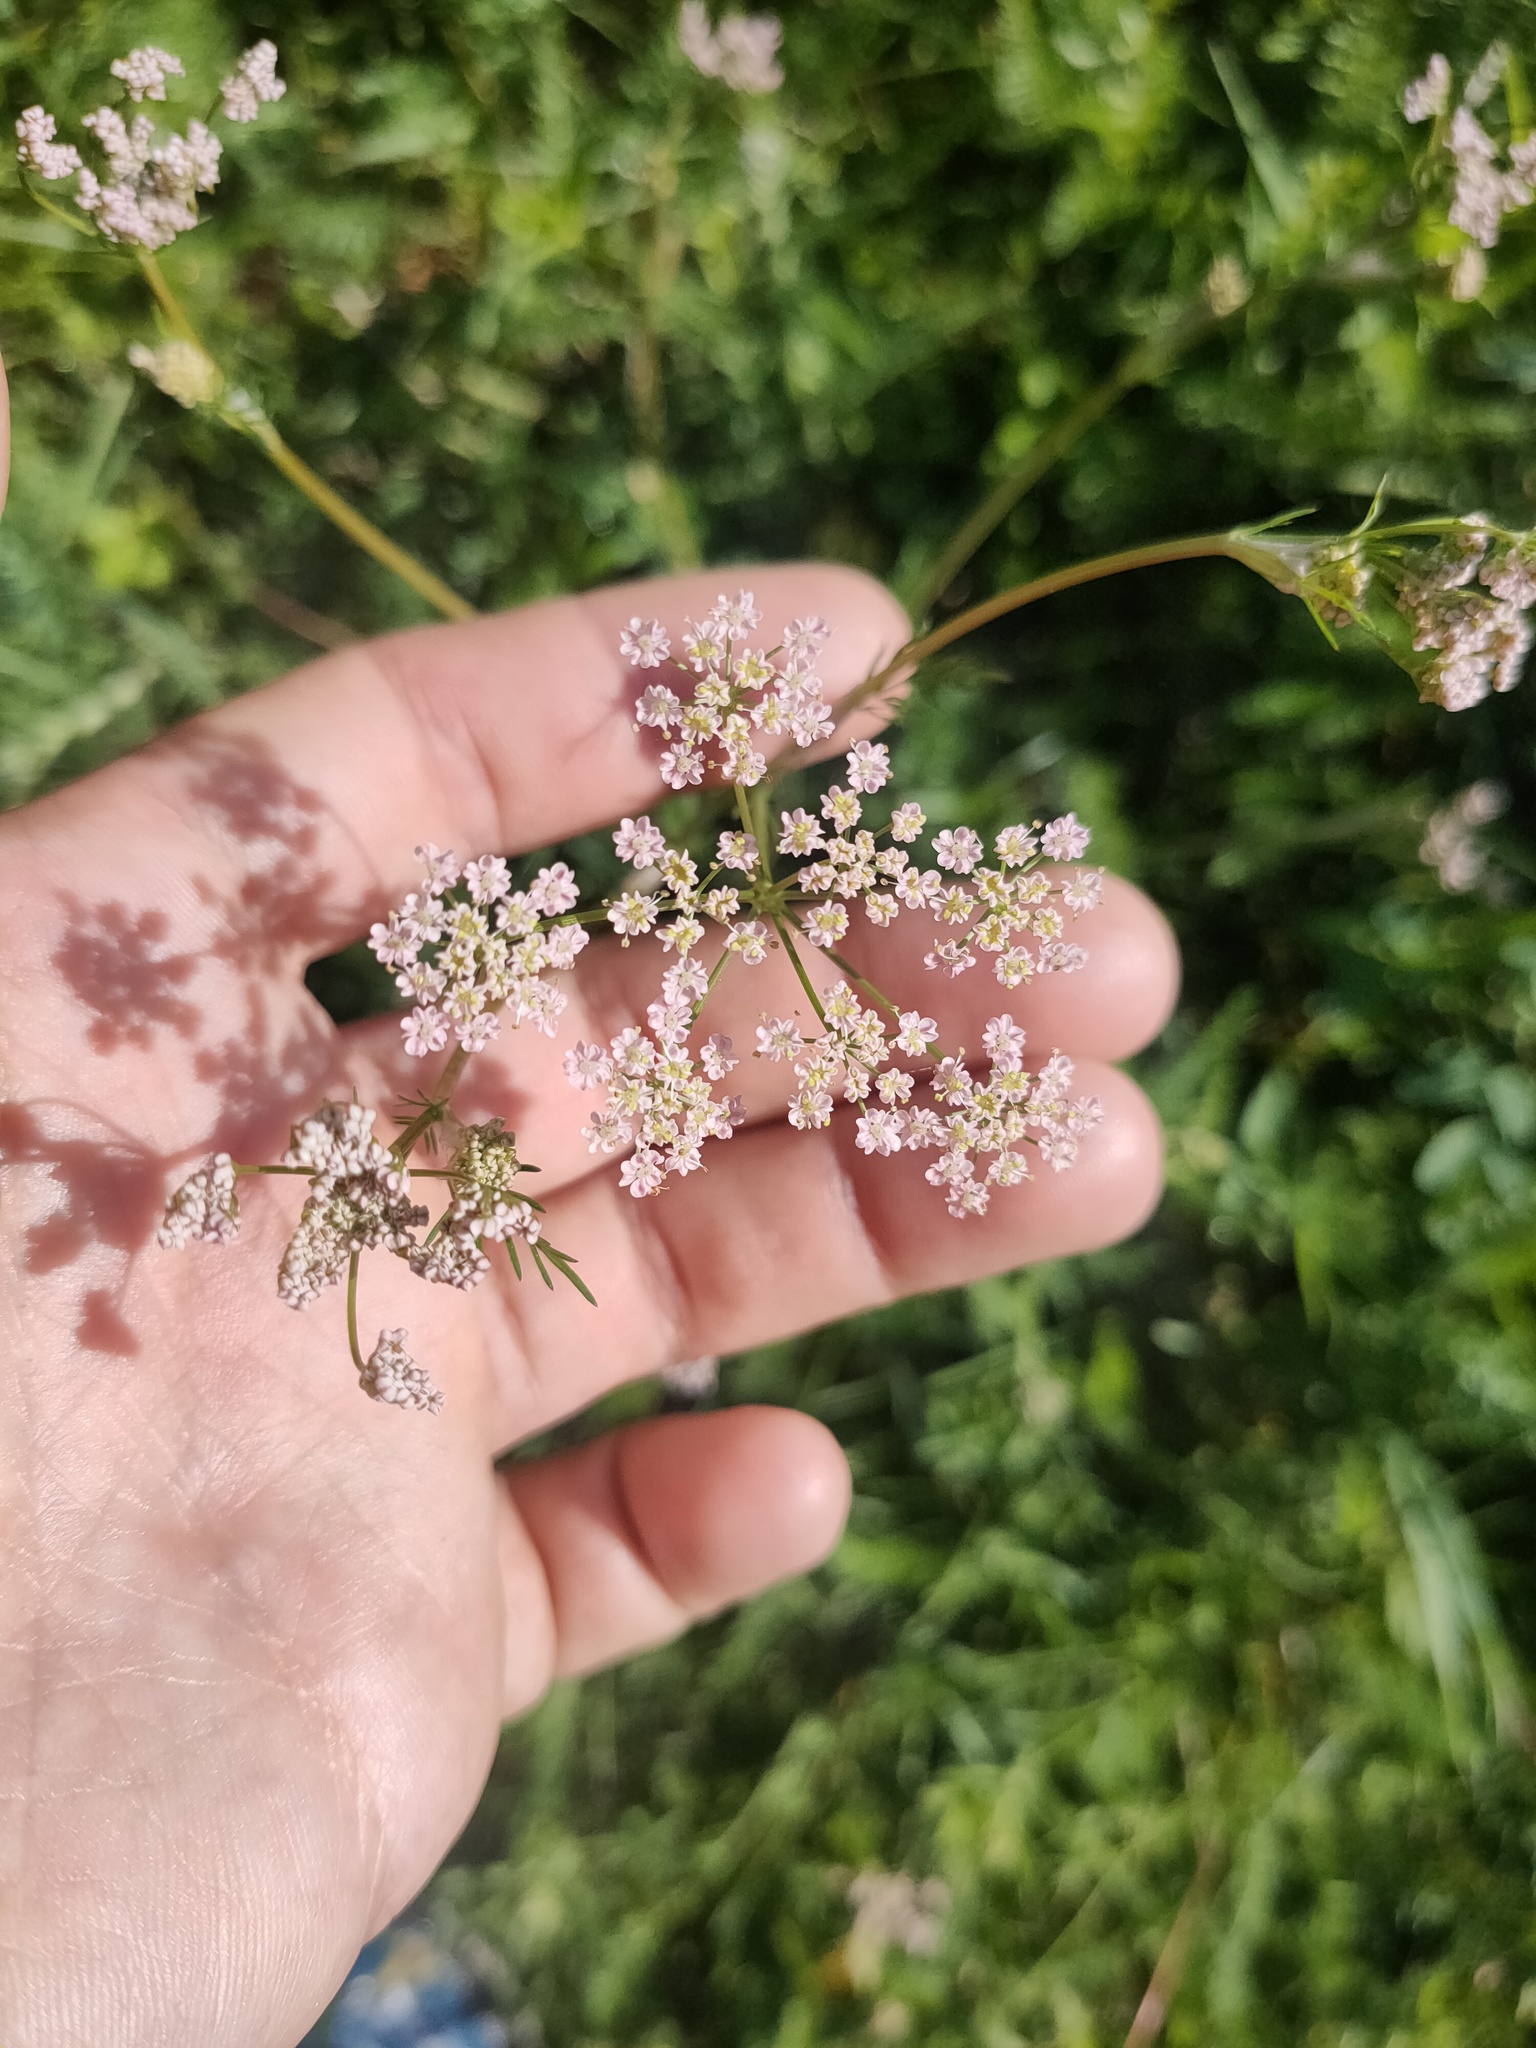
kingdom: Plantae
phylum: Tracheophyta
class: Magnoliopsida
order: Apiales
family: Apiaceae
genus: Carum
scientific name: Carum carvi
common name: Caraway
